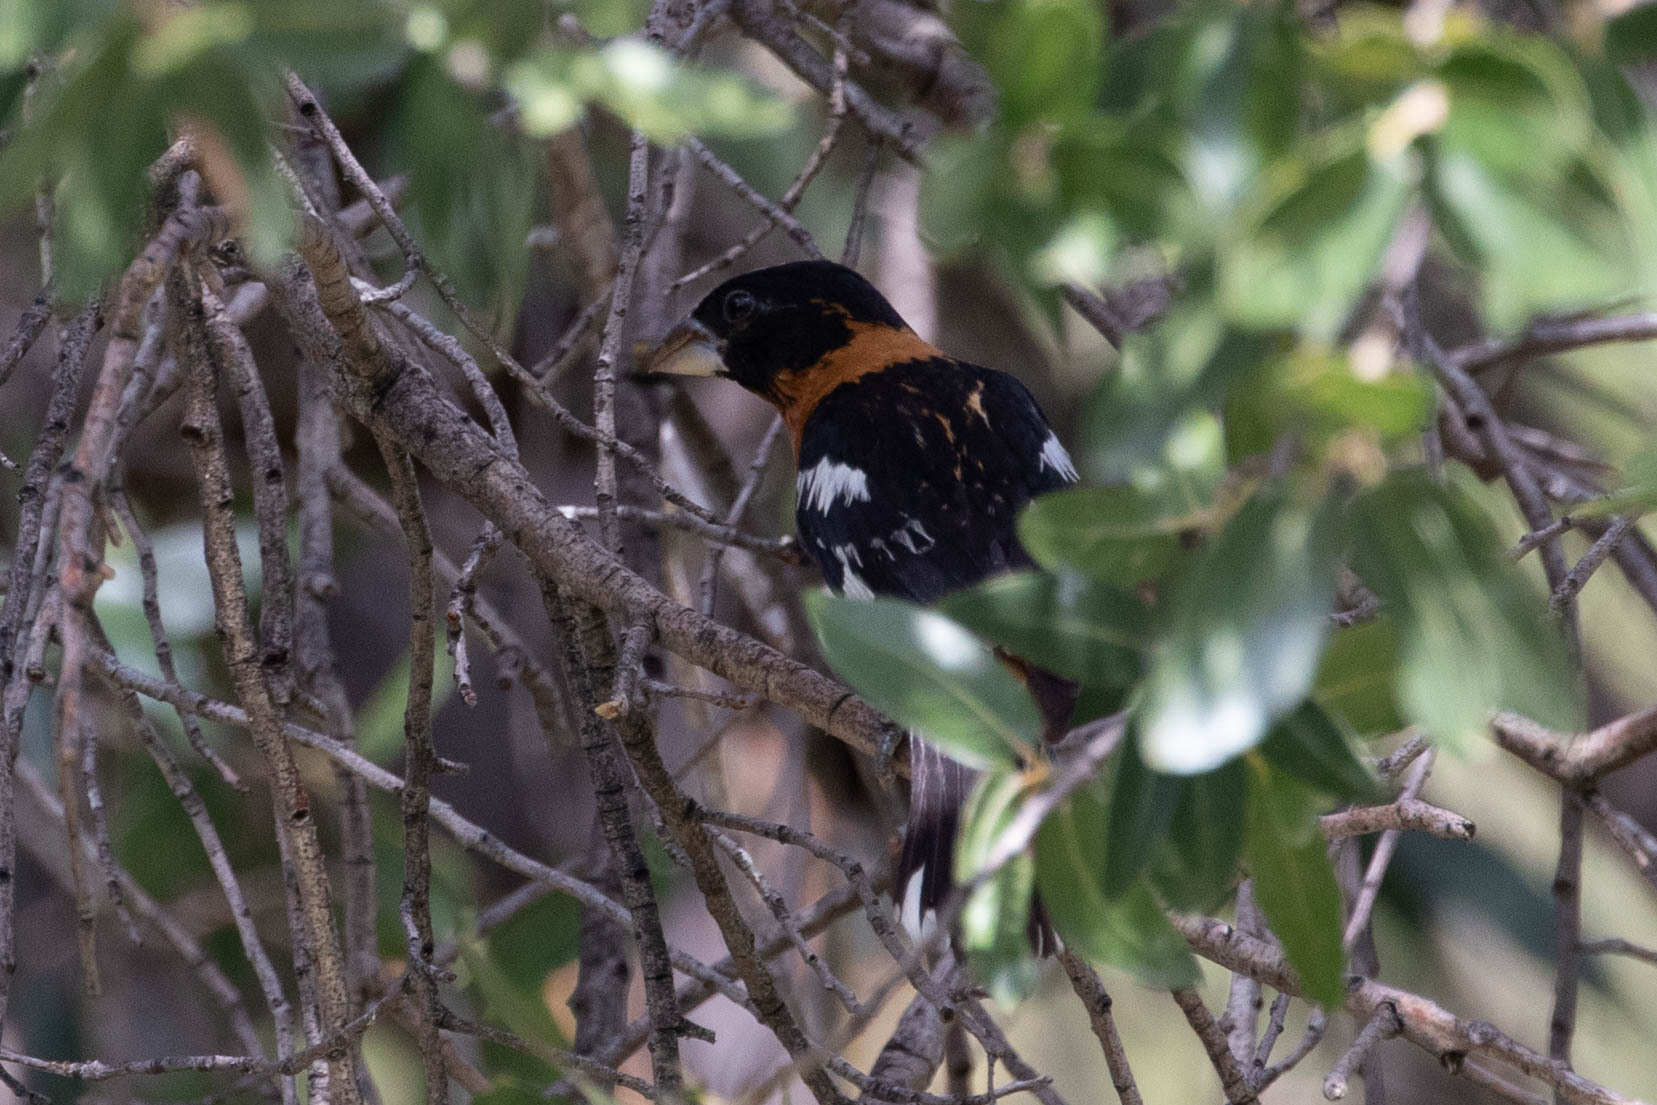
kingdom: Animalia
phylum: Chordata
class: Aves
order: Passeriformes
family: Cardinalidae
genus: Pheucticus
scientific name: Pheucticus melanocephalus
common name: Black-headed grosbeak
